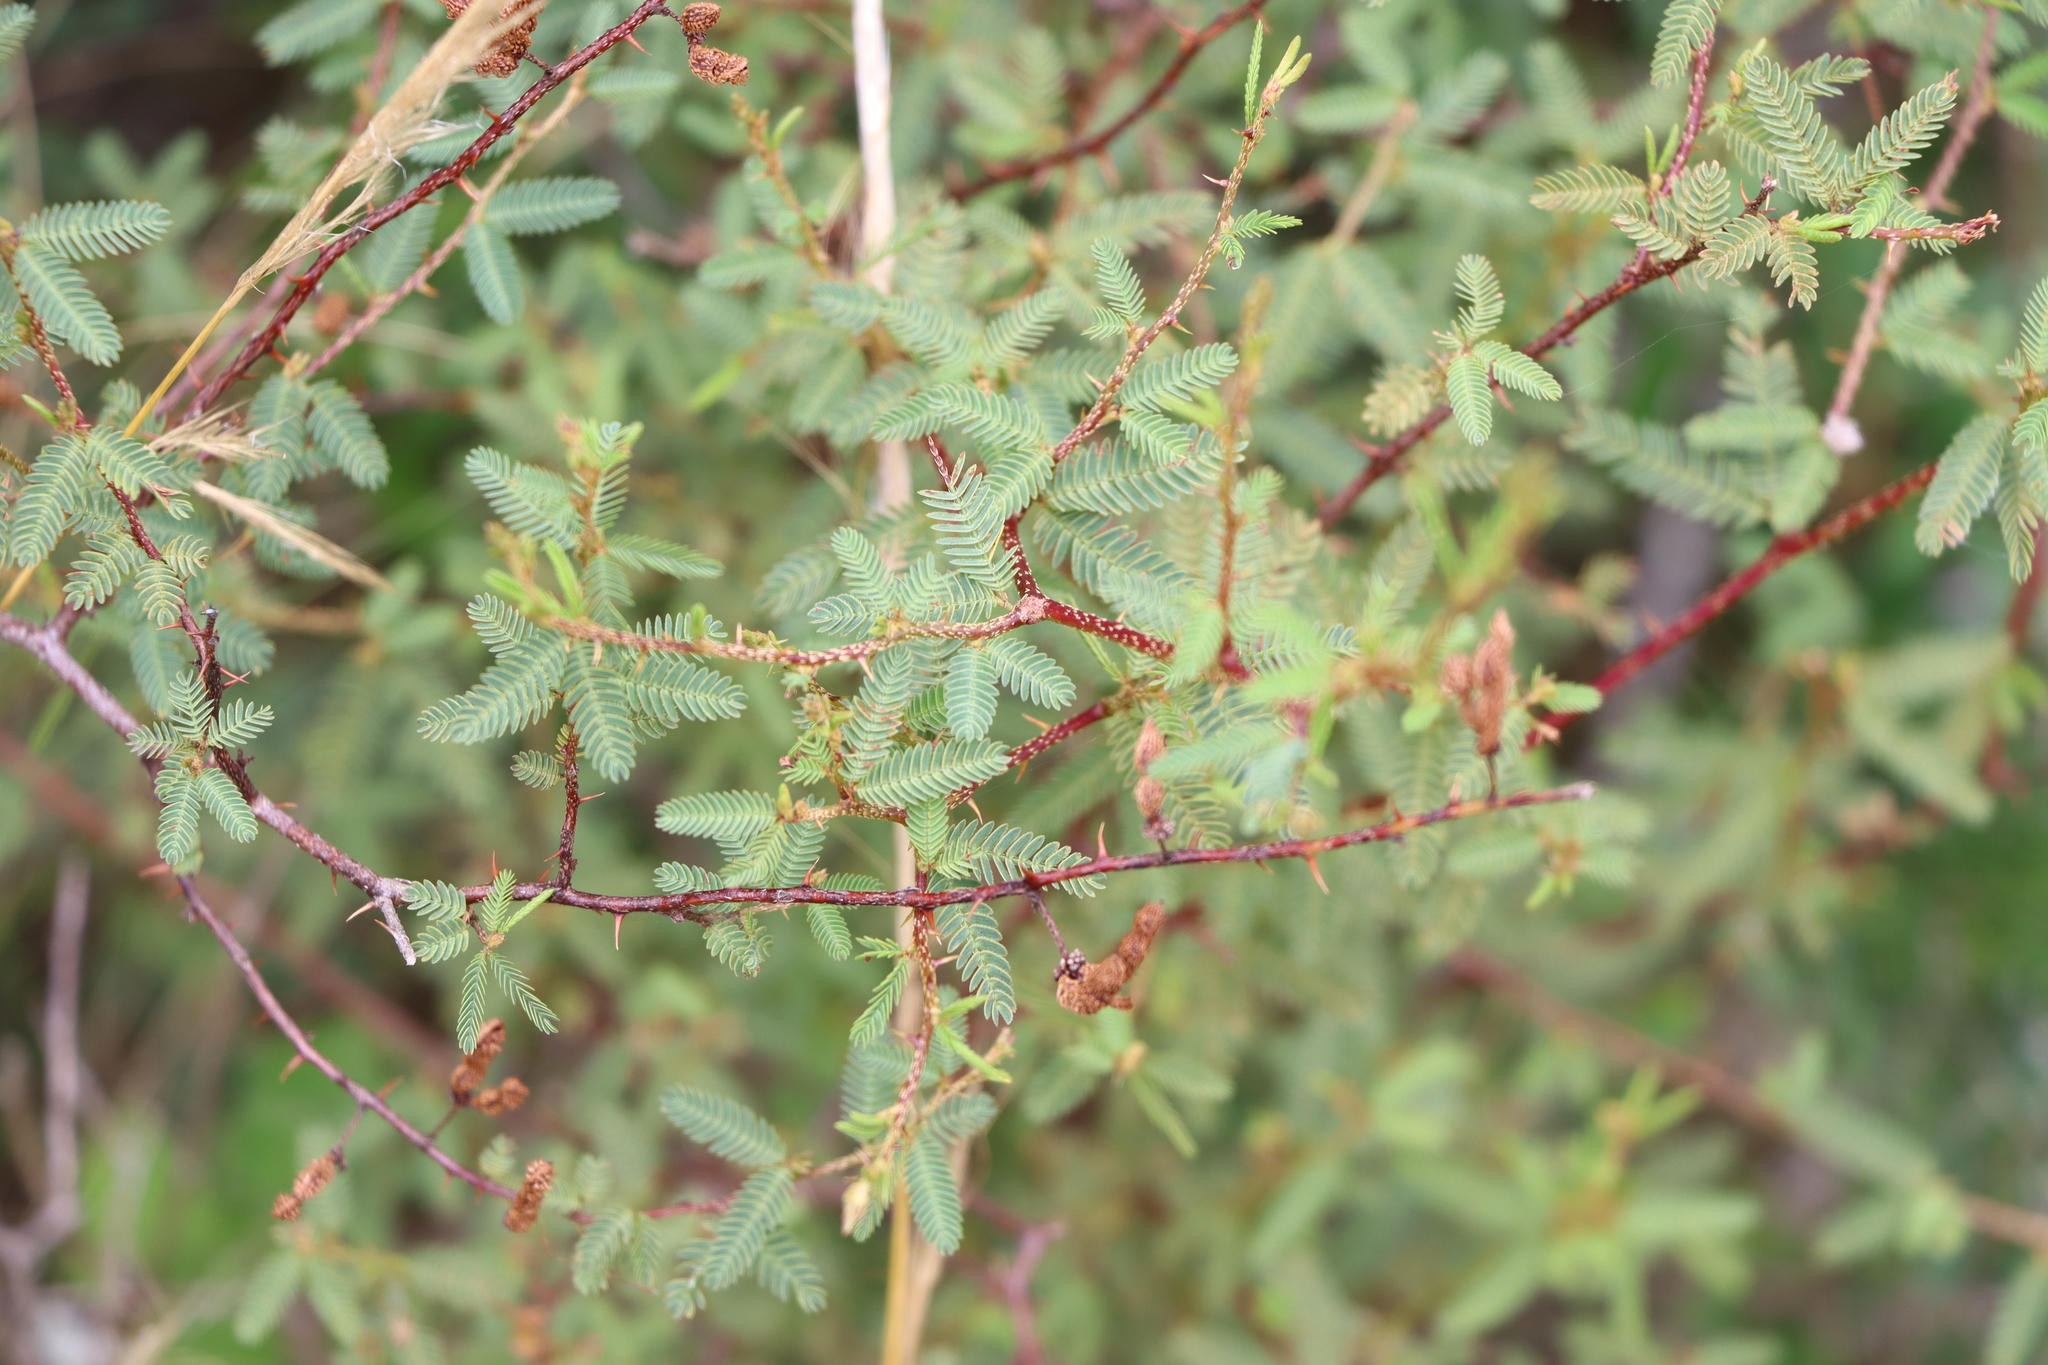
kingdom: Plantae
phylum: Tracheophyta
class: Magnoliopsida
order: Fabales
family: Fabaceae
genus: Mimosa
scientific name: Mimosa ramulosa
